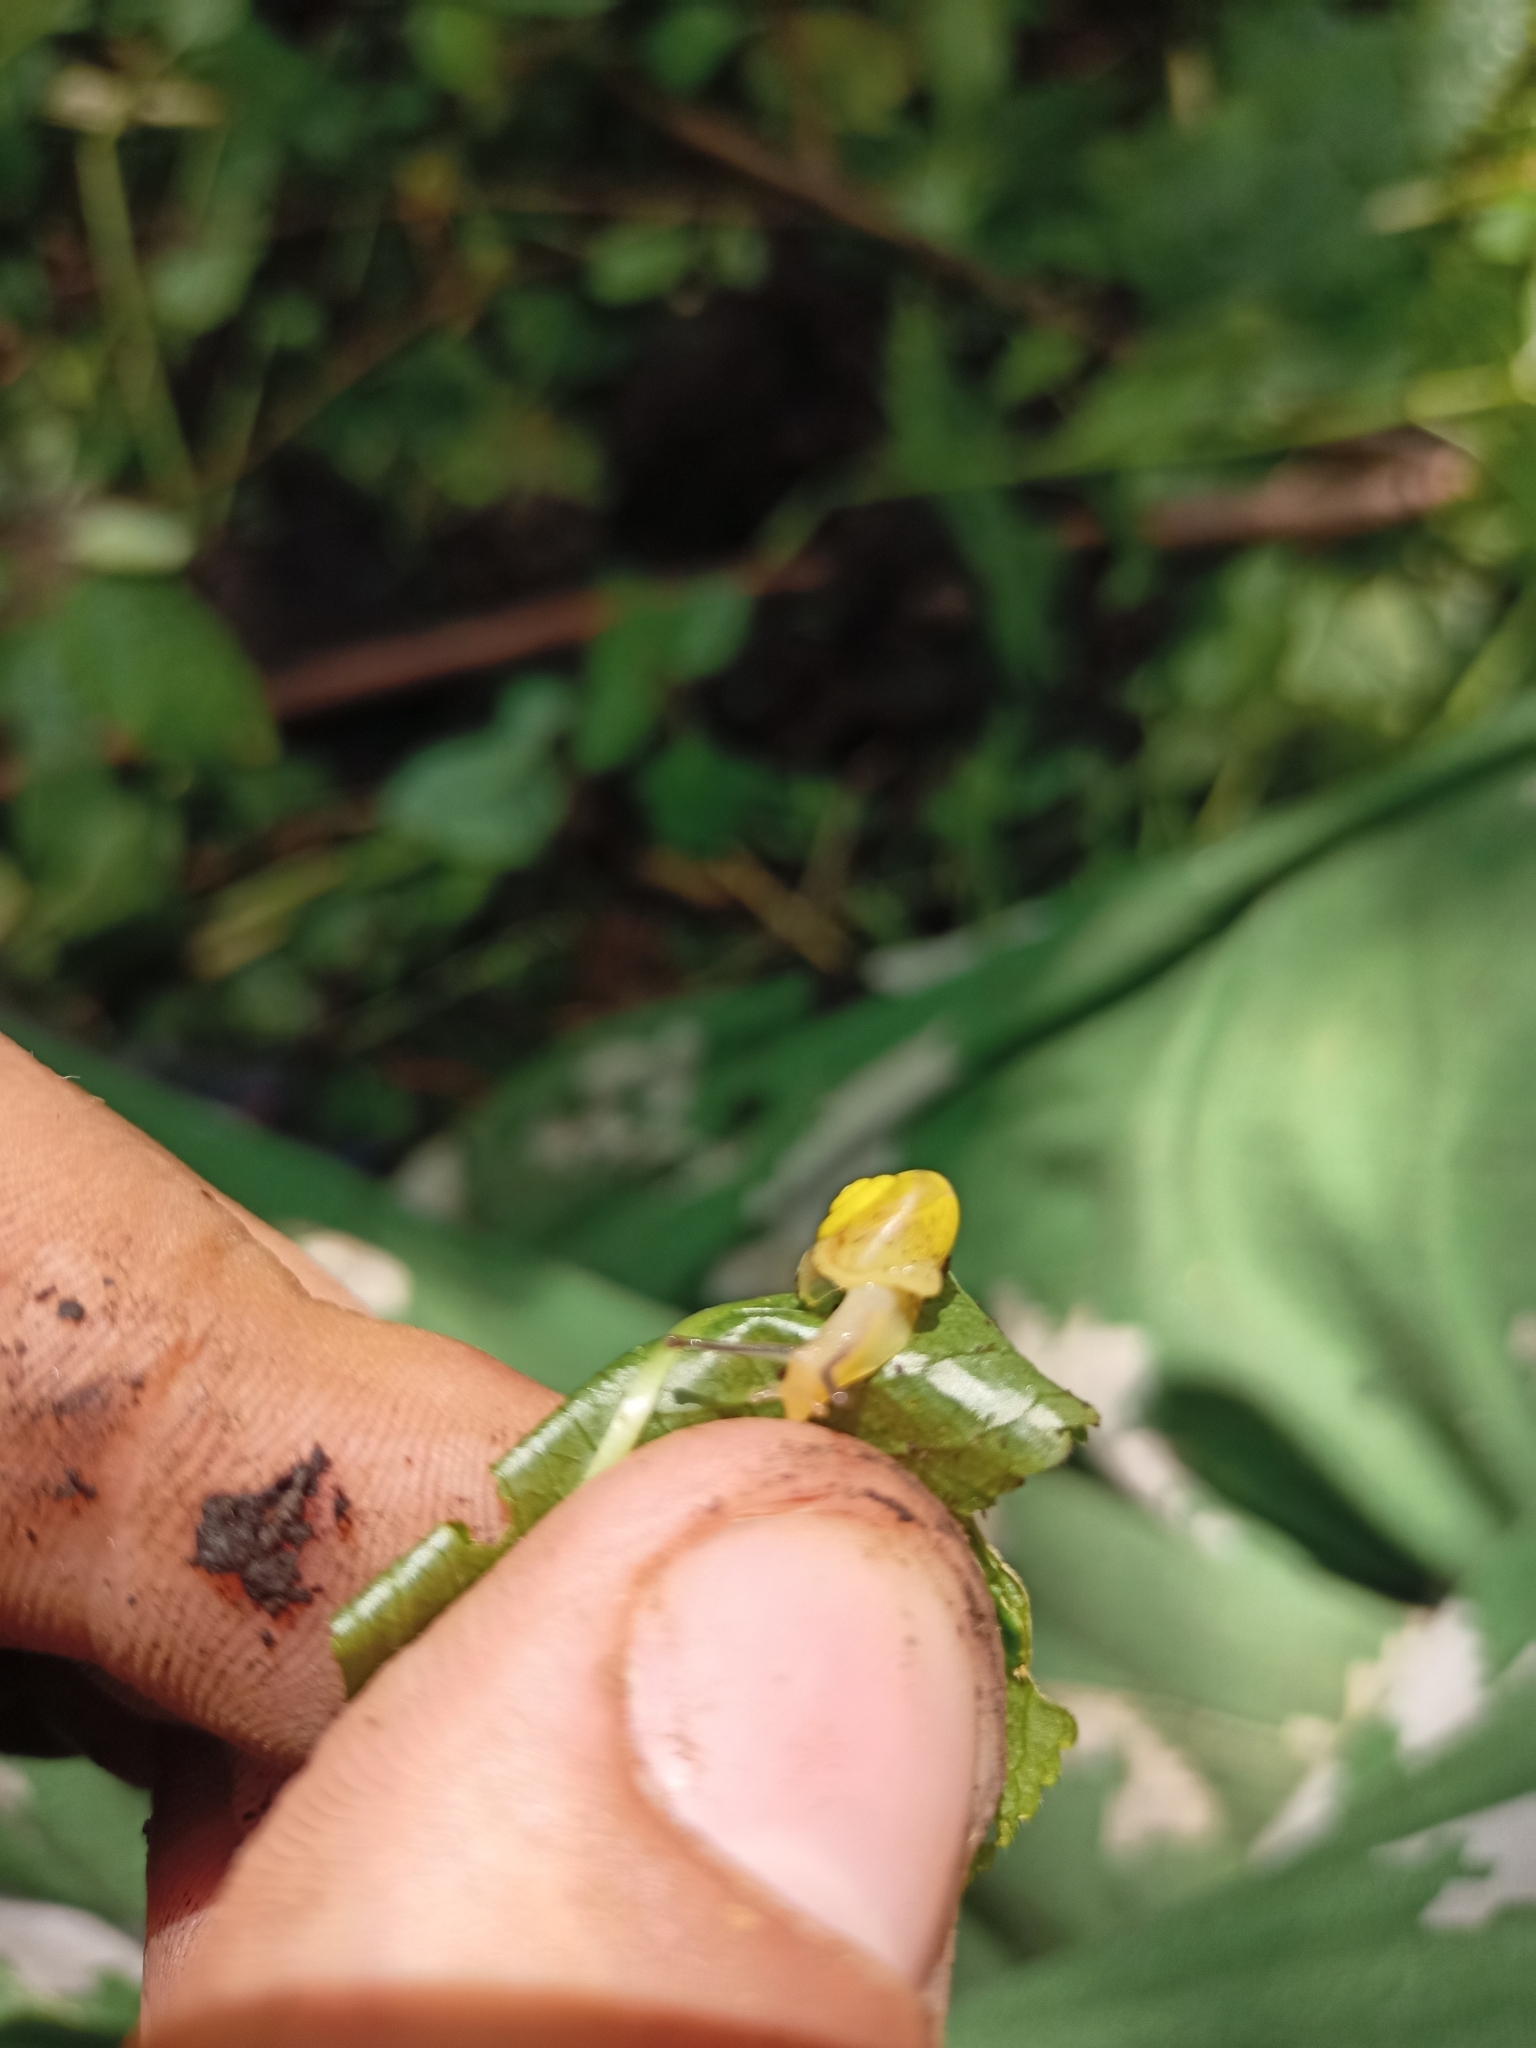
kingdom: Animalia
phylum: Mollusca
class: Gastropoda
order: Stylommatophora
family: Camaenidae
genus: Fruticicola
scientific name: Fruticicola fruticum
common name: Bush snail
